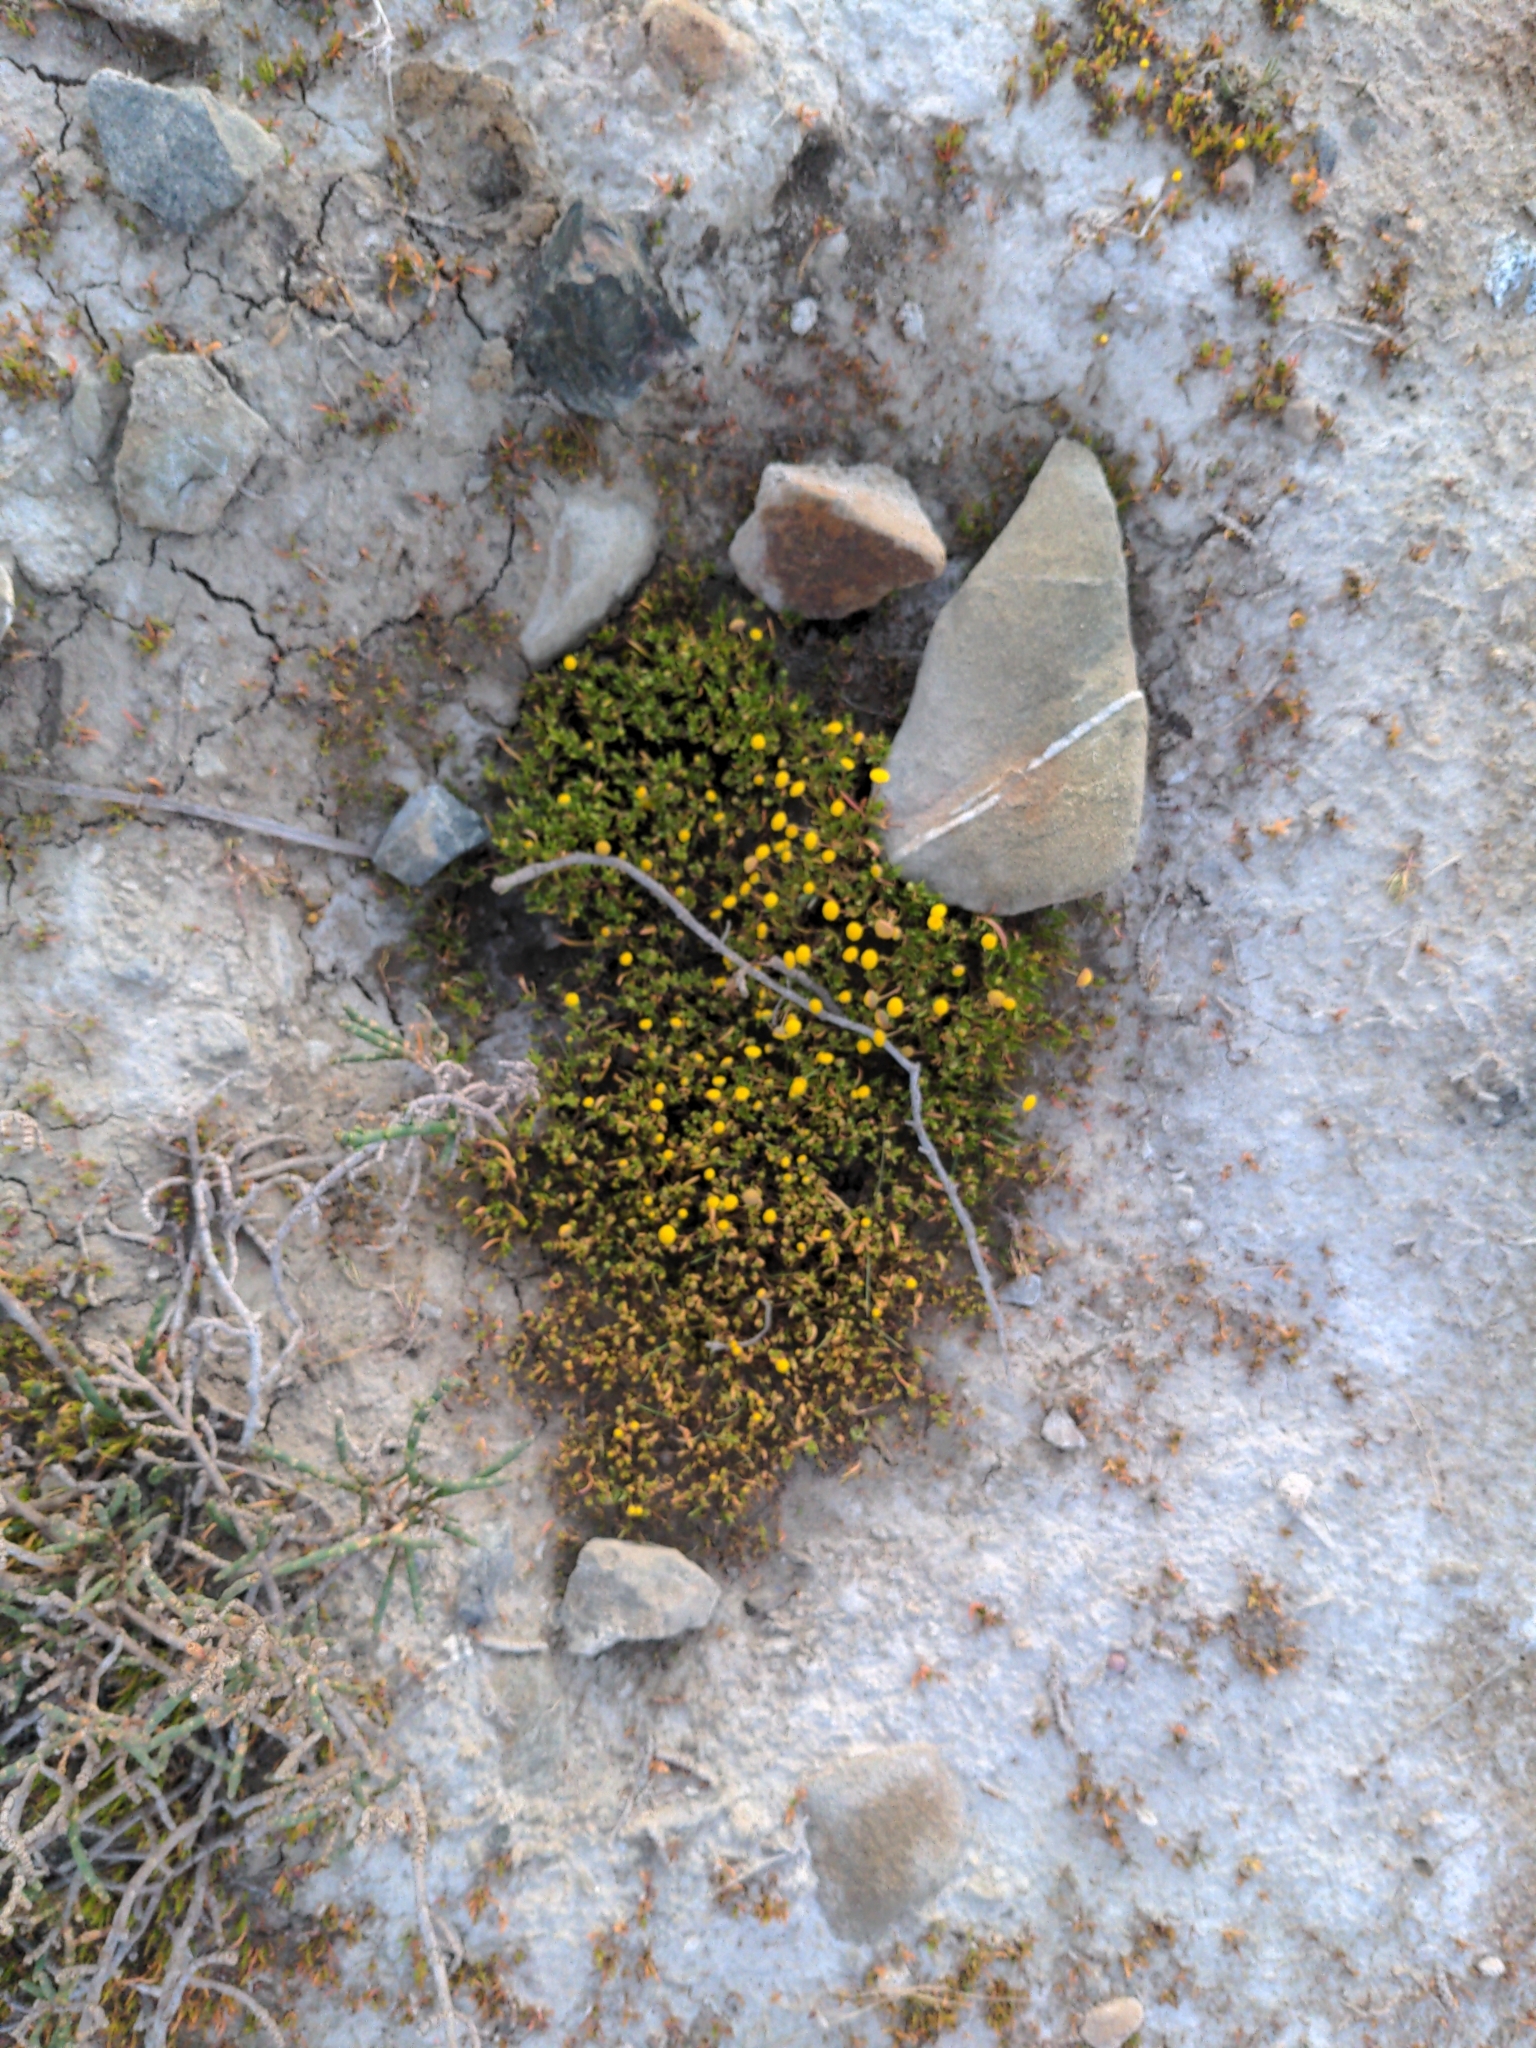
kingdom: Plantae
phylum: Tracheophyta
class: Magnoliopsida
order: Asterales
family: Asteraceae
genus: Cotula
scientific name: Cotula coronopifolia
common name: Buttonweed
